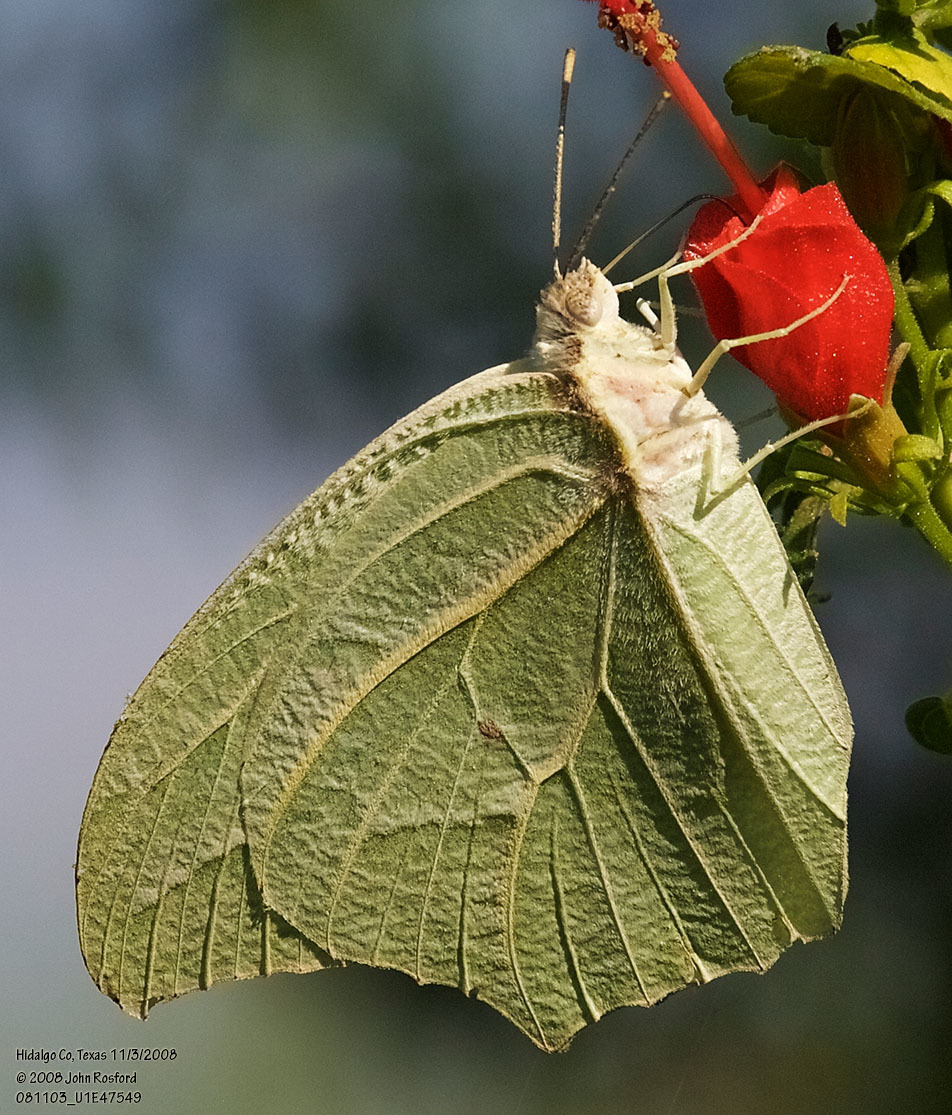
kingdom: Animalia
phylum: Arthropoda
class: Insecta
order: Lepidoptera
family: Pieridae
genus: Anteos
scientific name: Anteos clorinde
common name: White angled sulphur
